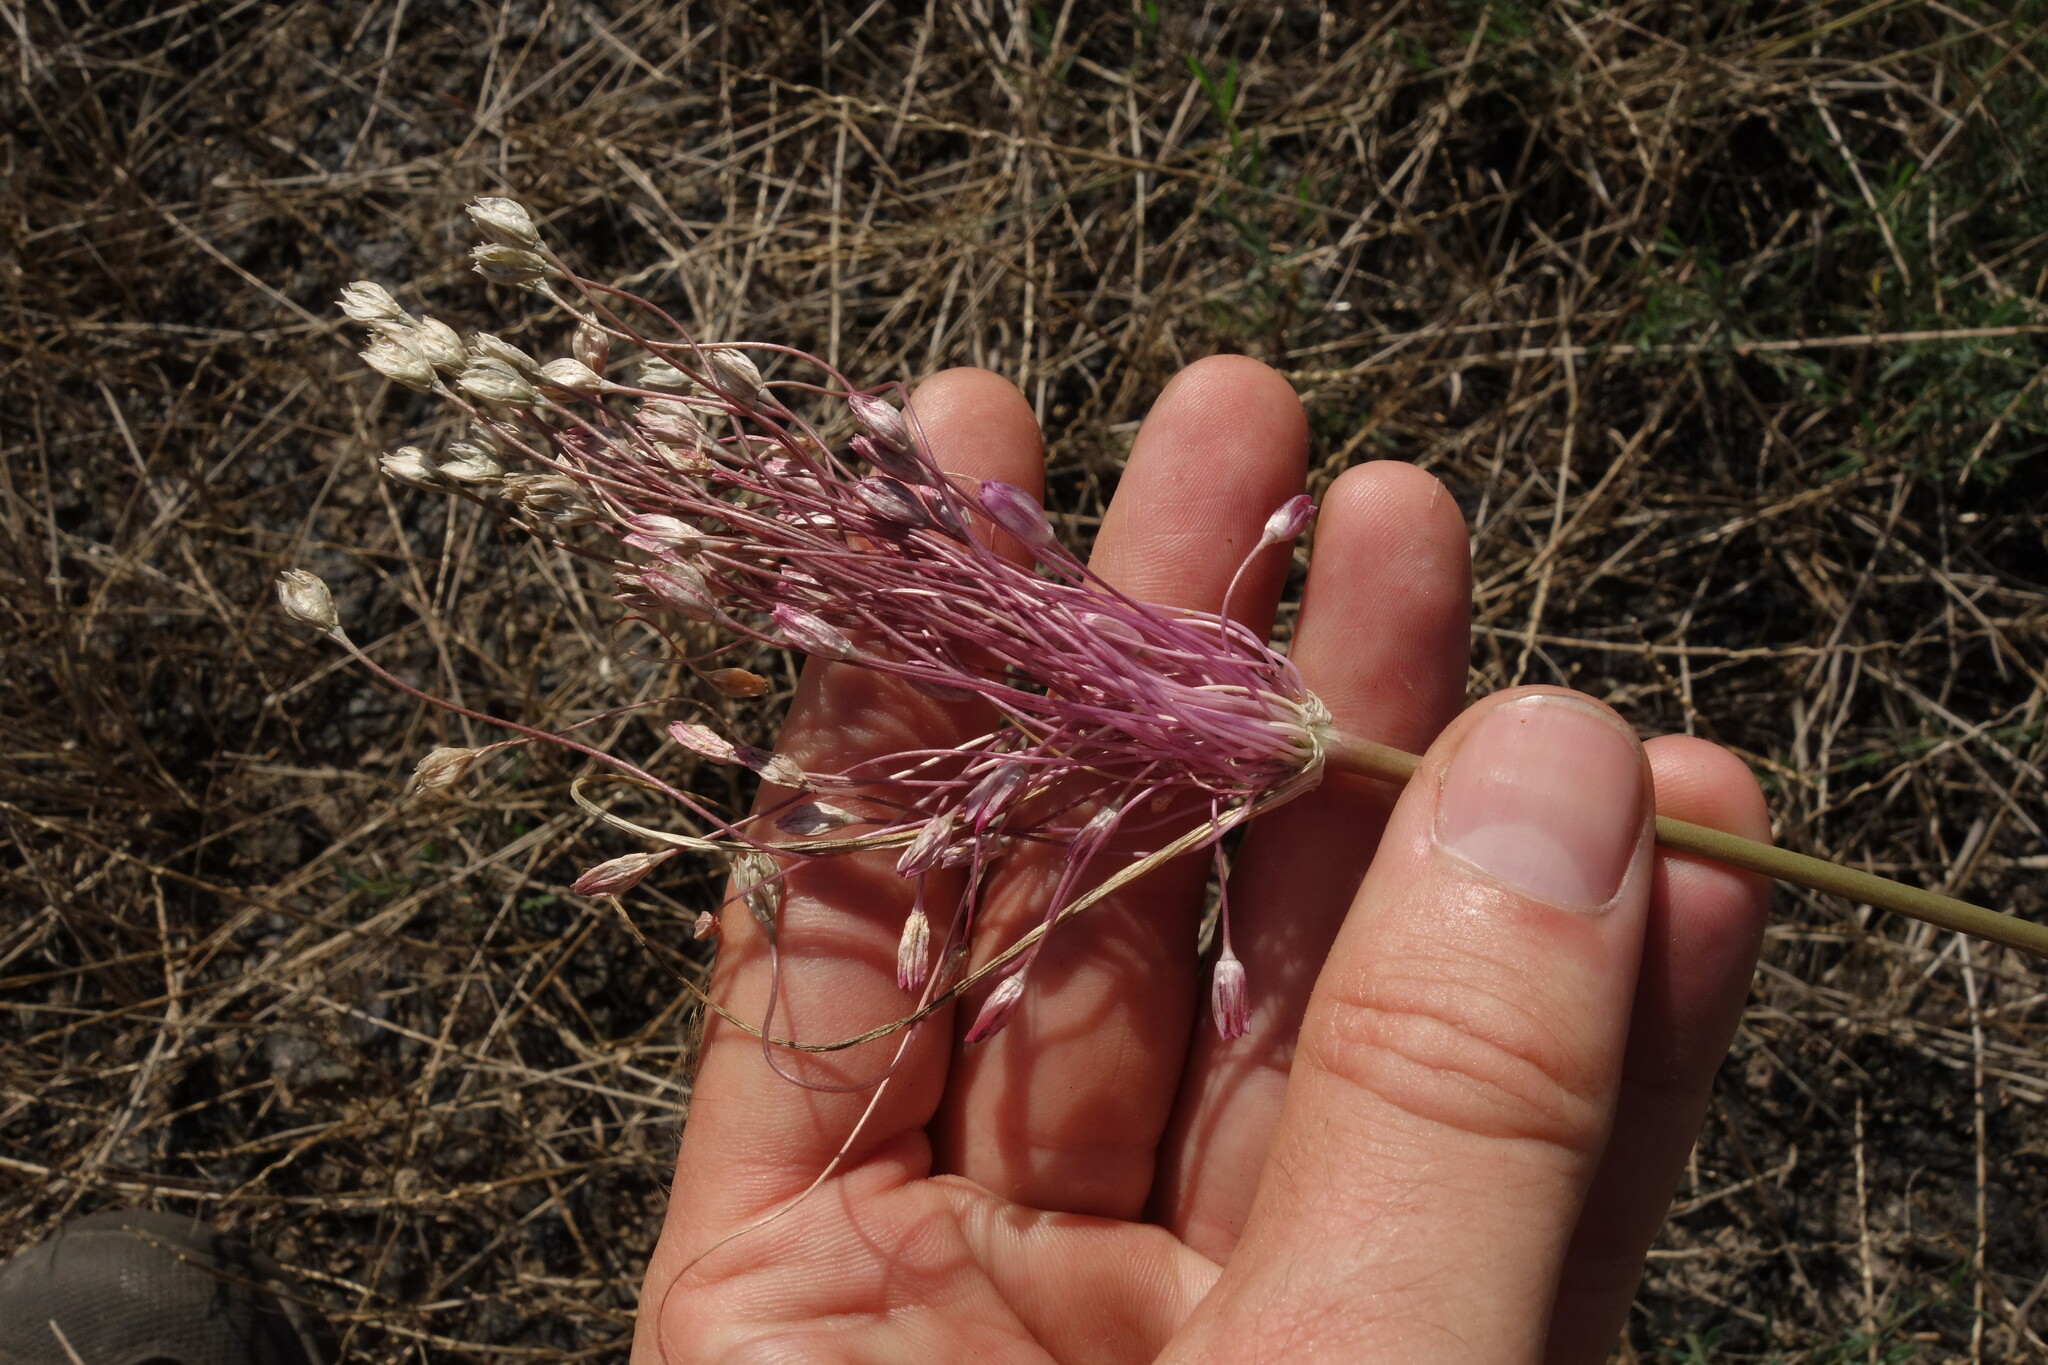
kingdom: Plantae
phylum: Tracheophyta
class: Liliopsida
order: Asparagales
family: Amaryllidaceae
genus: Allium
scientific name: Allium praescissum
